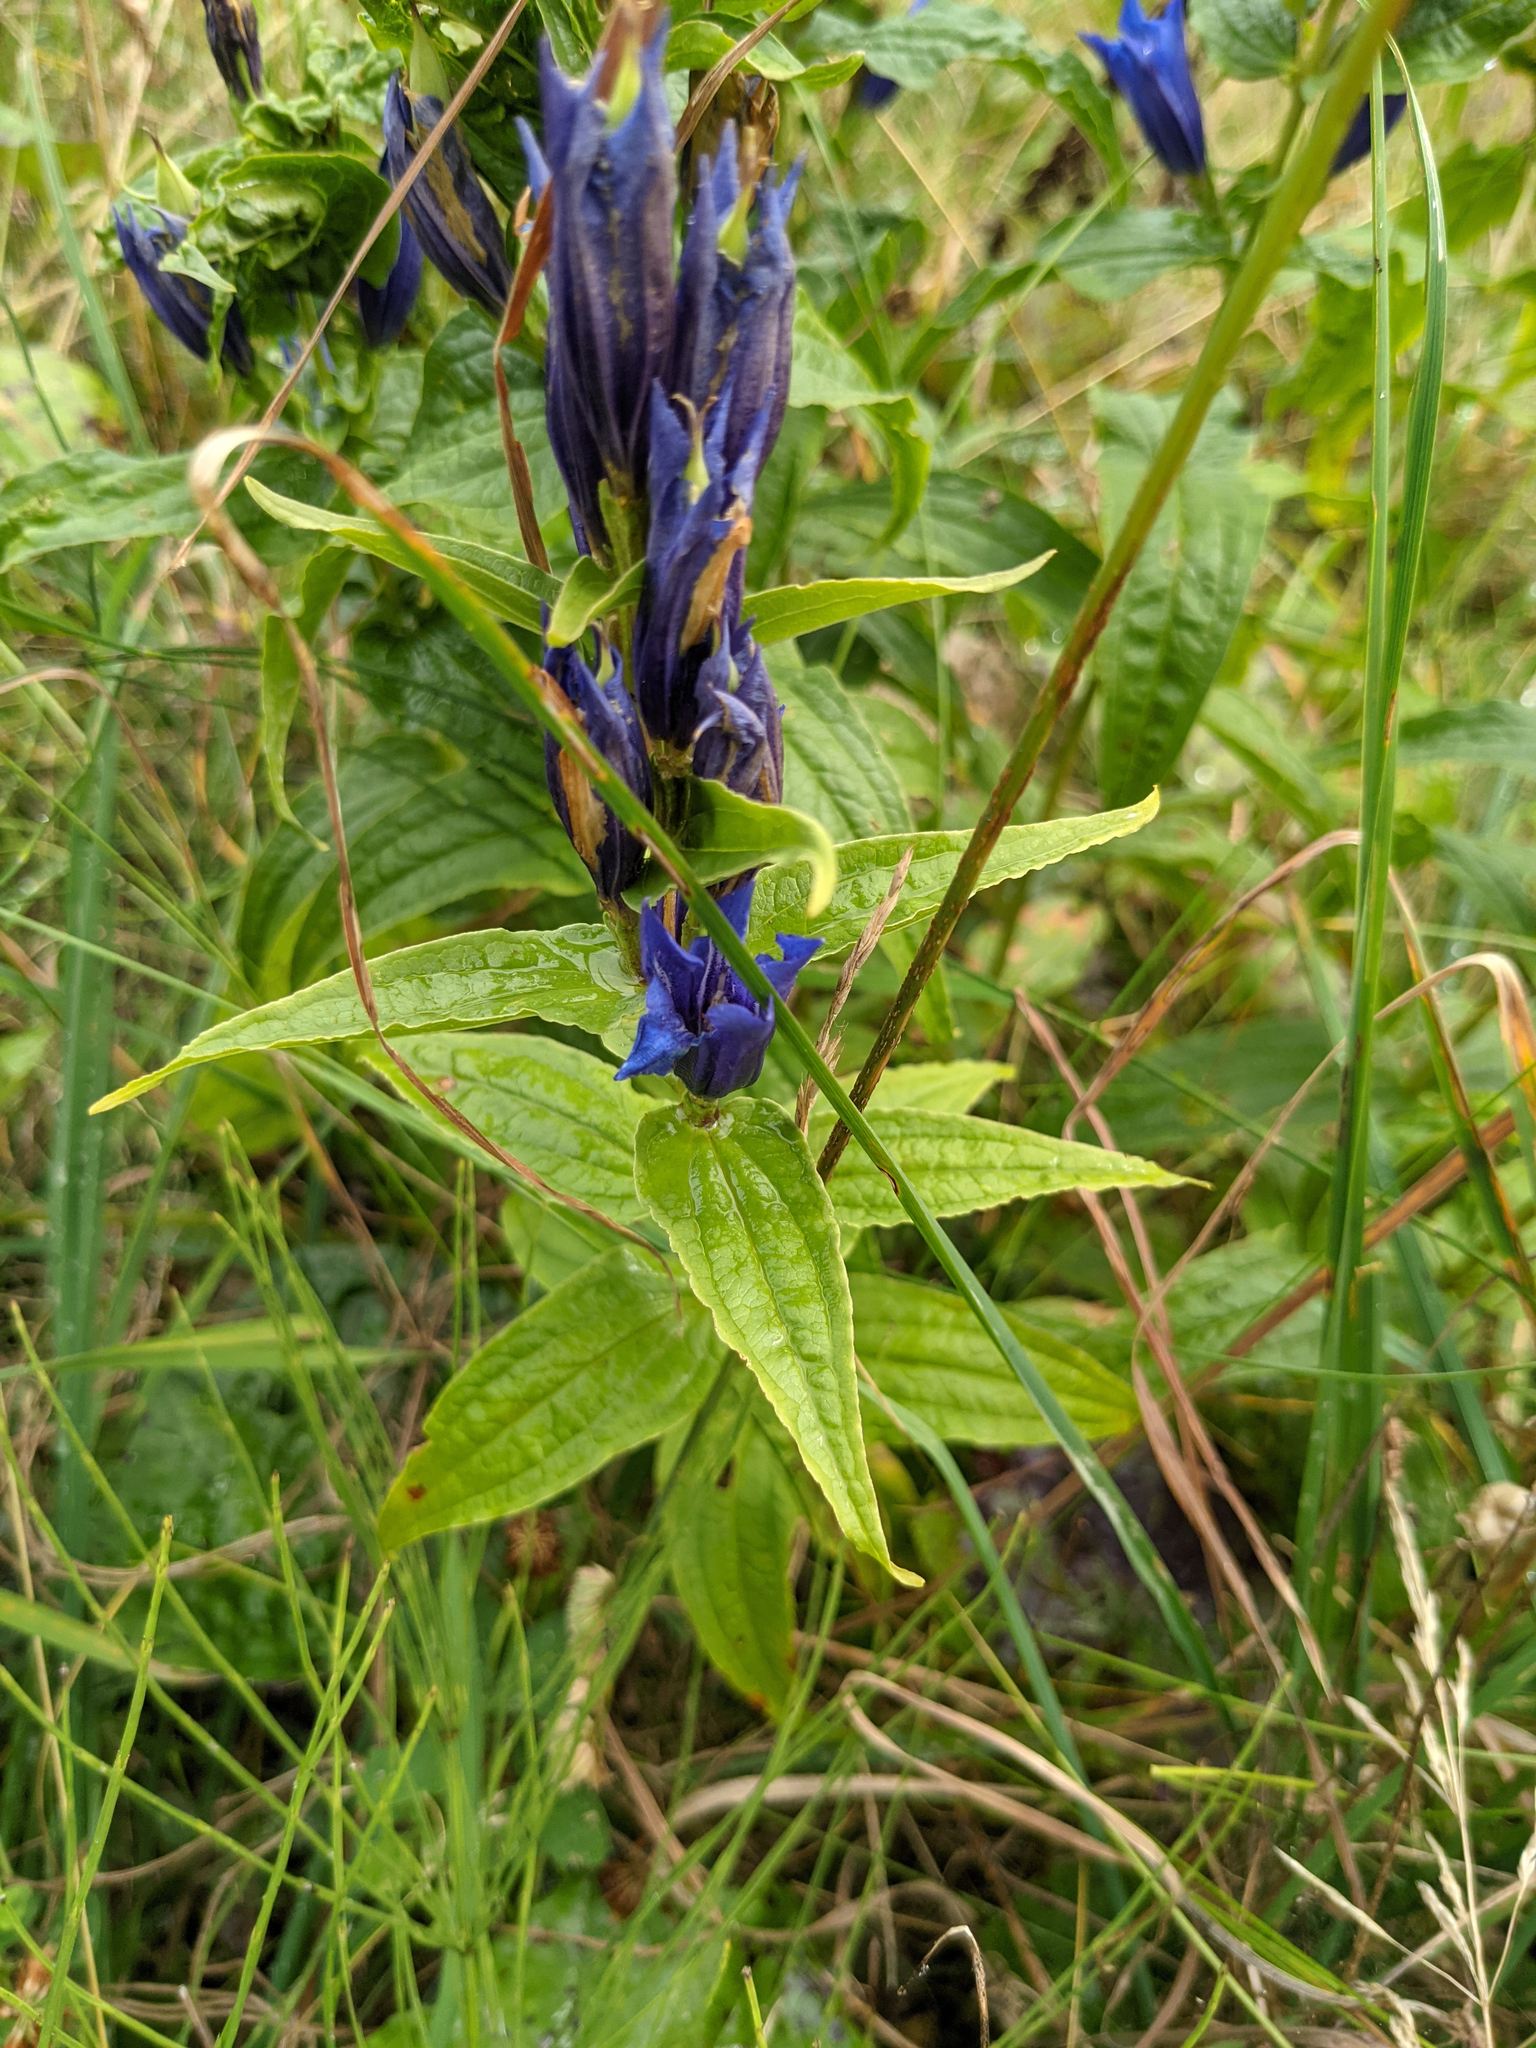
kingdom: Plantae
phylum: Tracheophyta
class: Magnoliopsida
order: Gentianales
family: Gentianaceae
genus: Gentiana
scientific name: Gentiana asclepiadea
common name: Willow gentian
